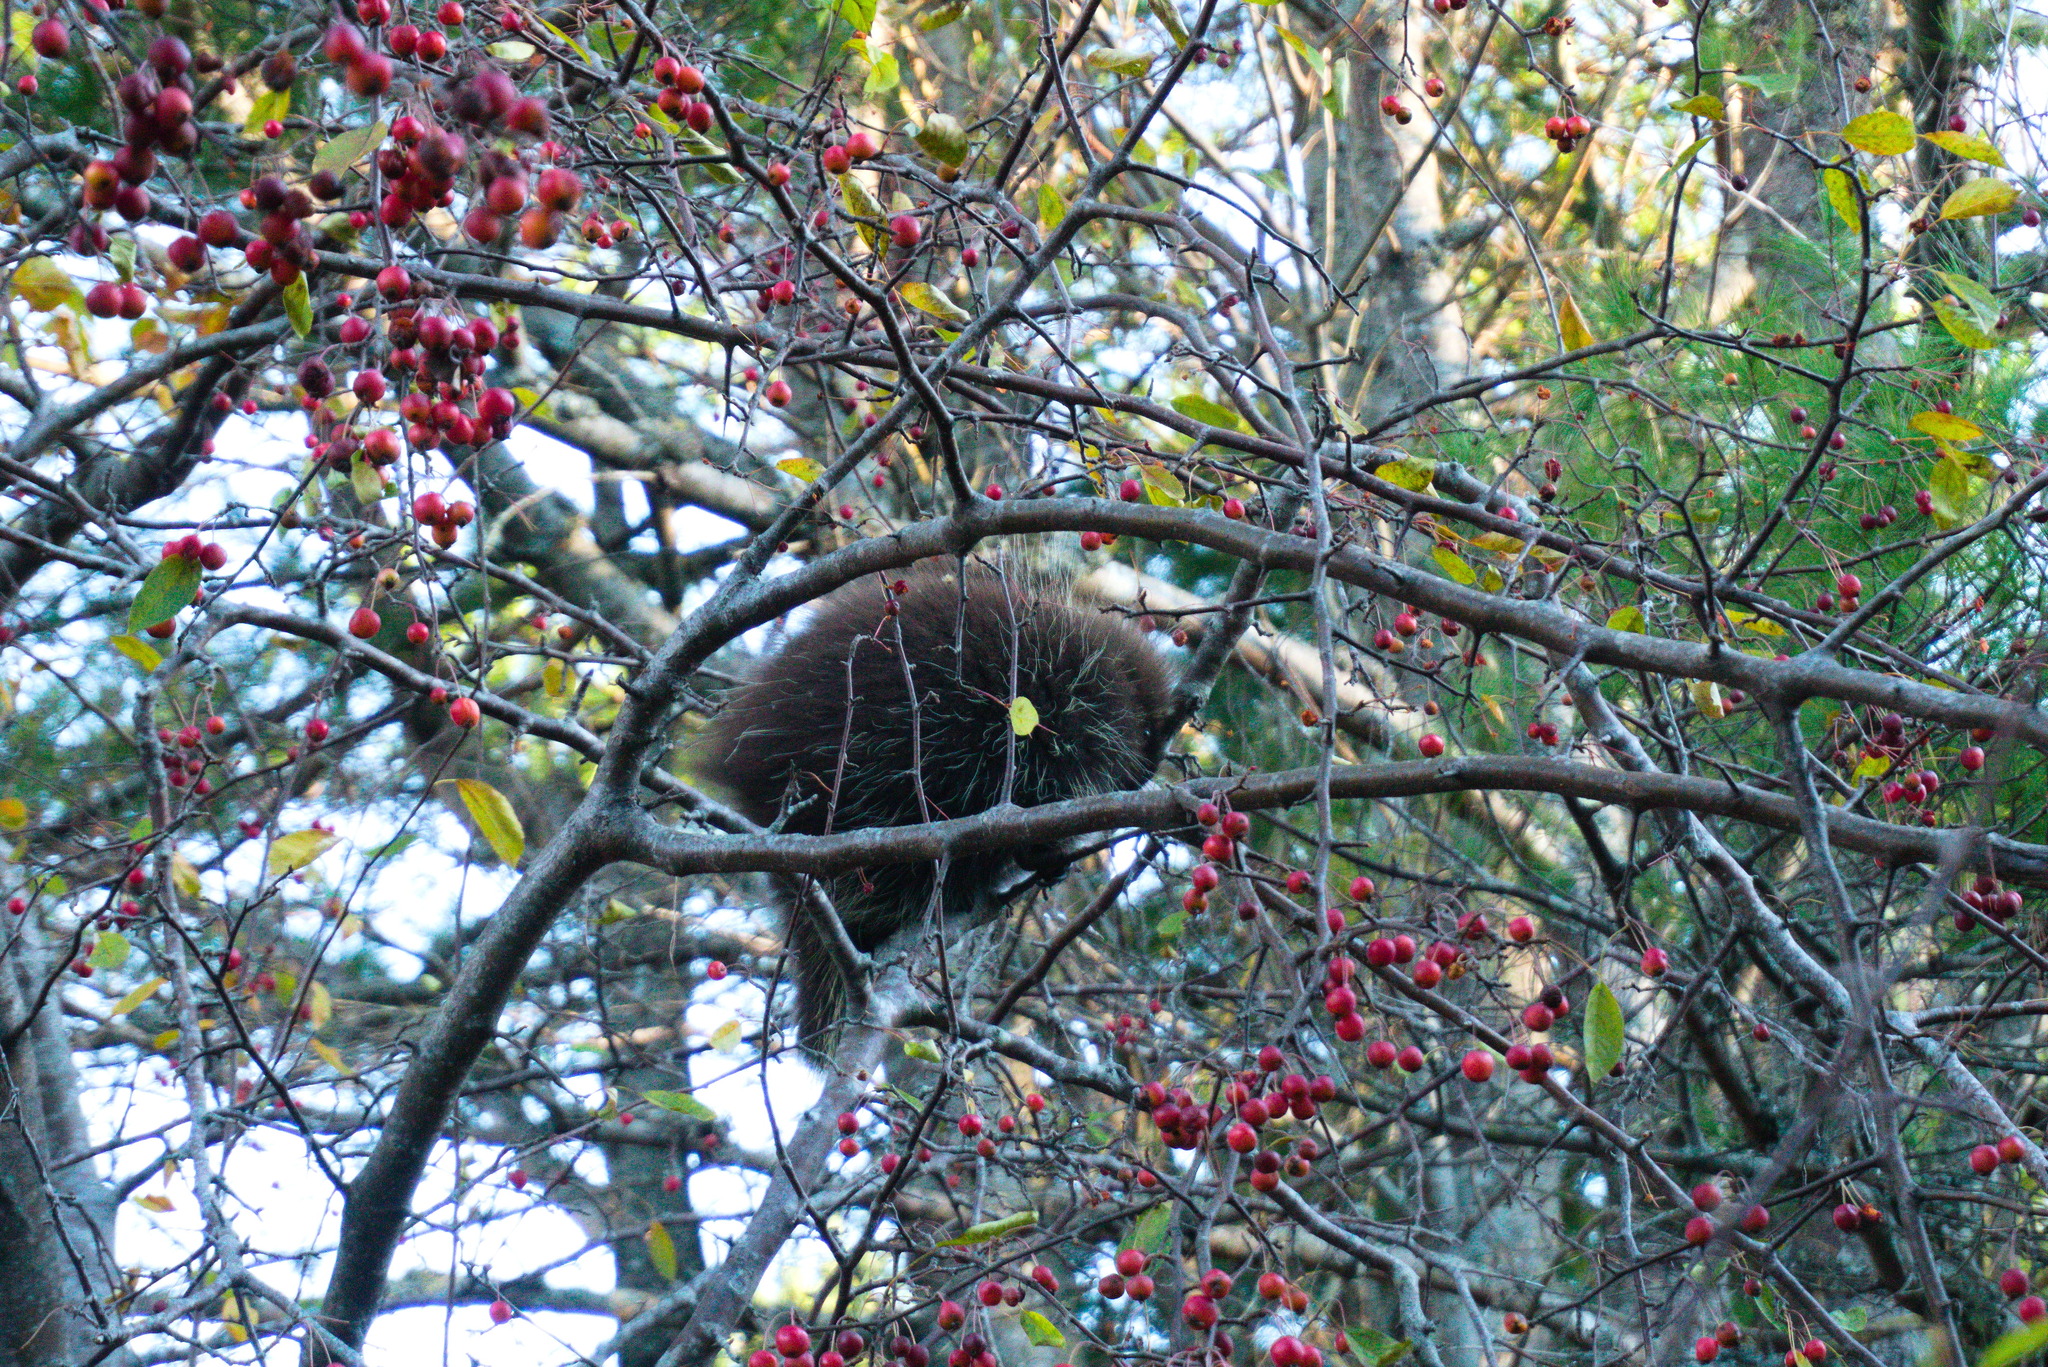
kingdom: Animalia
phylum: Chordata
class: Mammalia
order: Rodentia
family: Erethizontidae
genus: Erethizon
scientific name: Erethizon dorsatus
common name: North american porcupine
